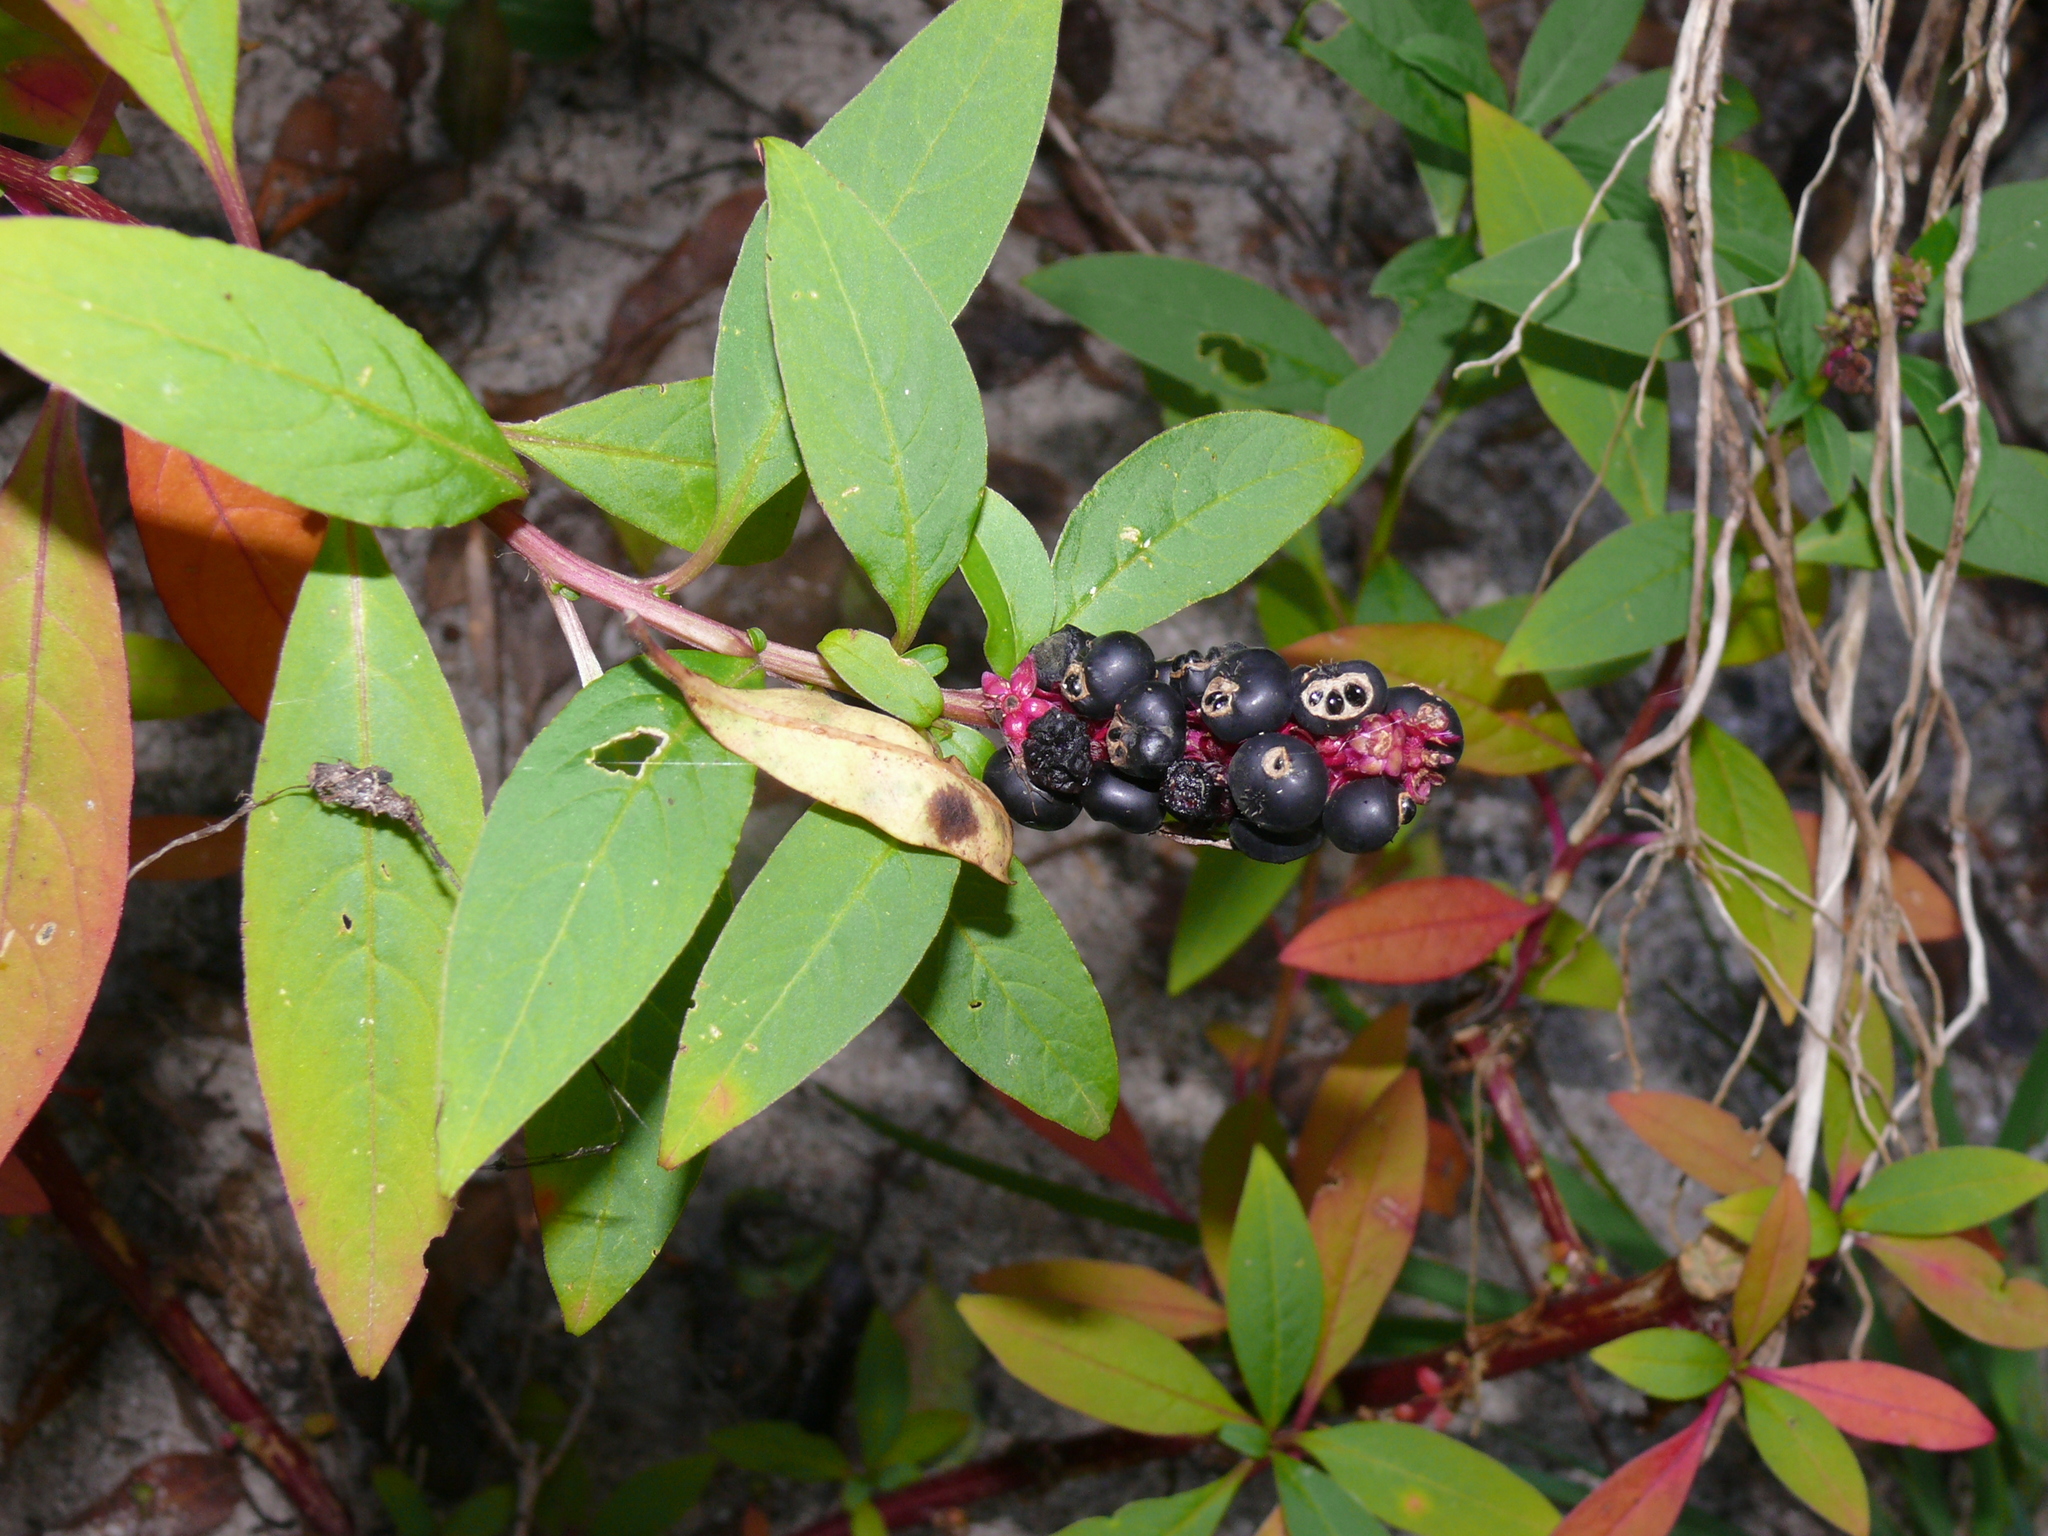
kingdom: Plantae
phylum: Tracheophyta
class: Magnoliopsida
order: Caryophyllales
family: Phytolaccaceae
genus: Phytolacca
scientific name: Phytolacca icosandra
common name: Button pokeweed
